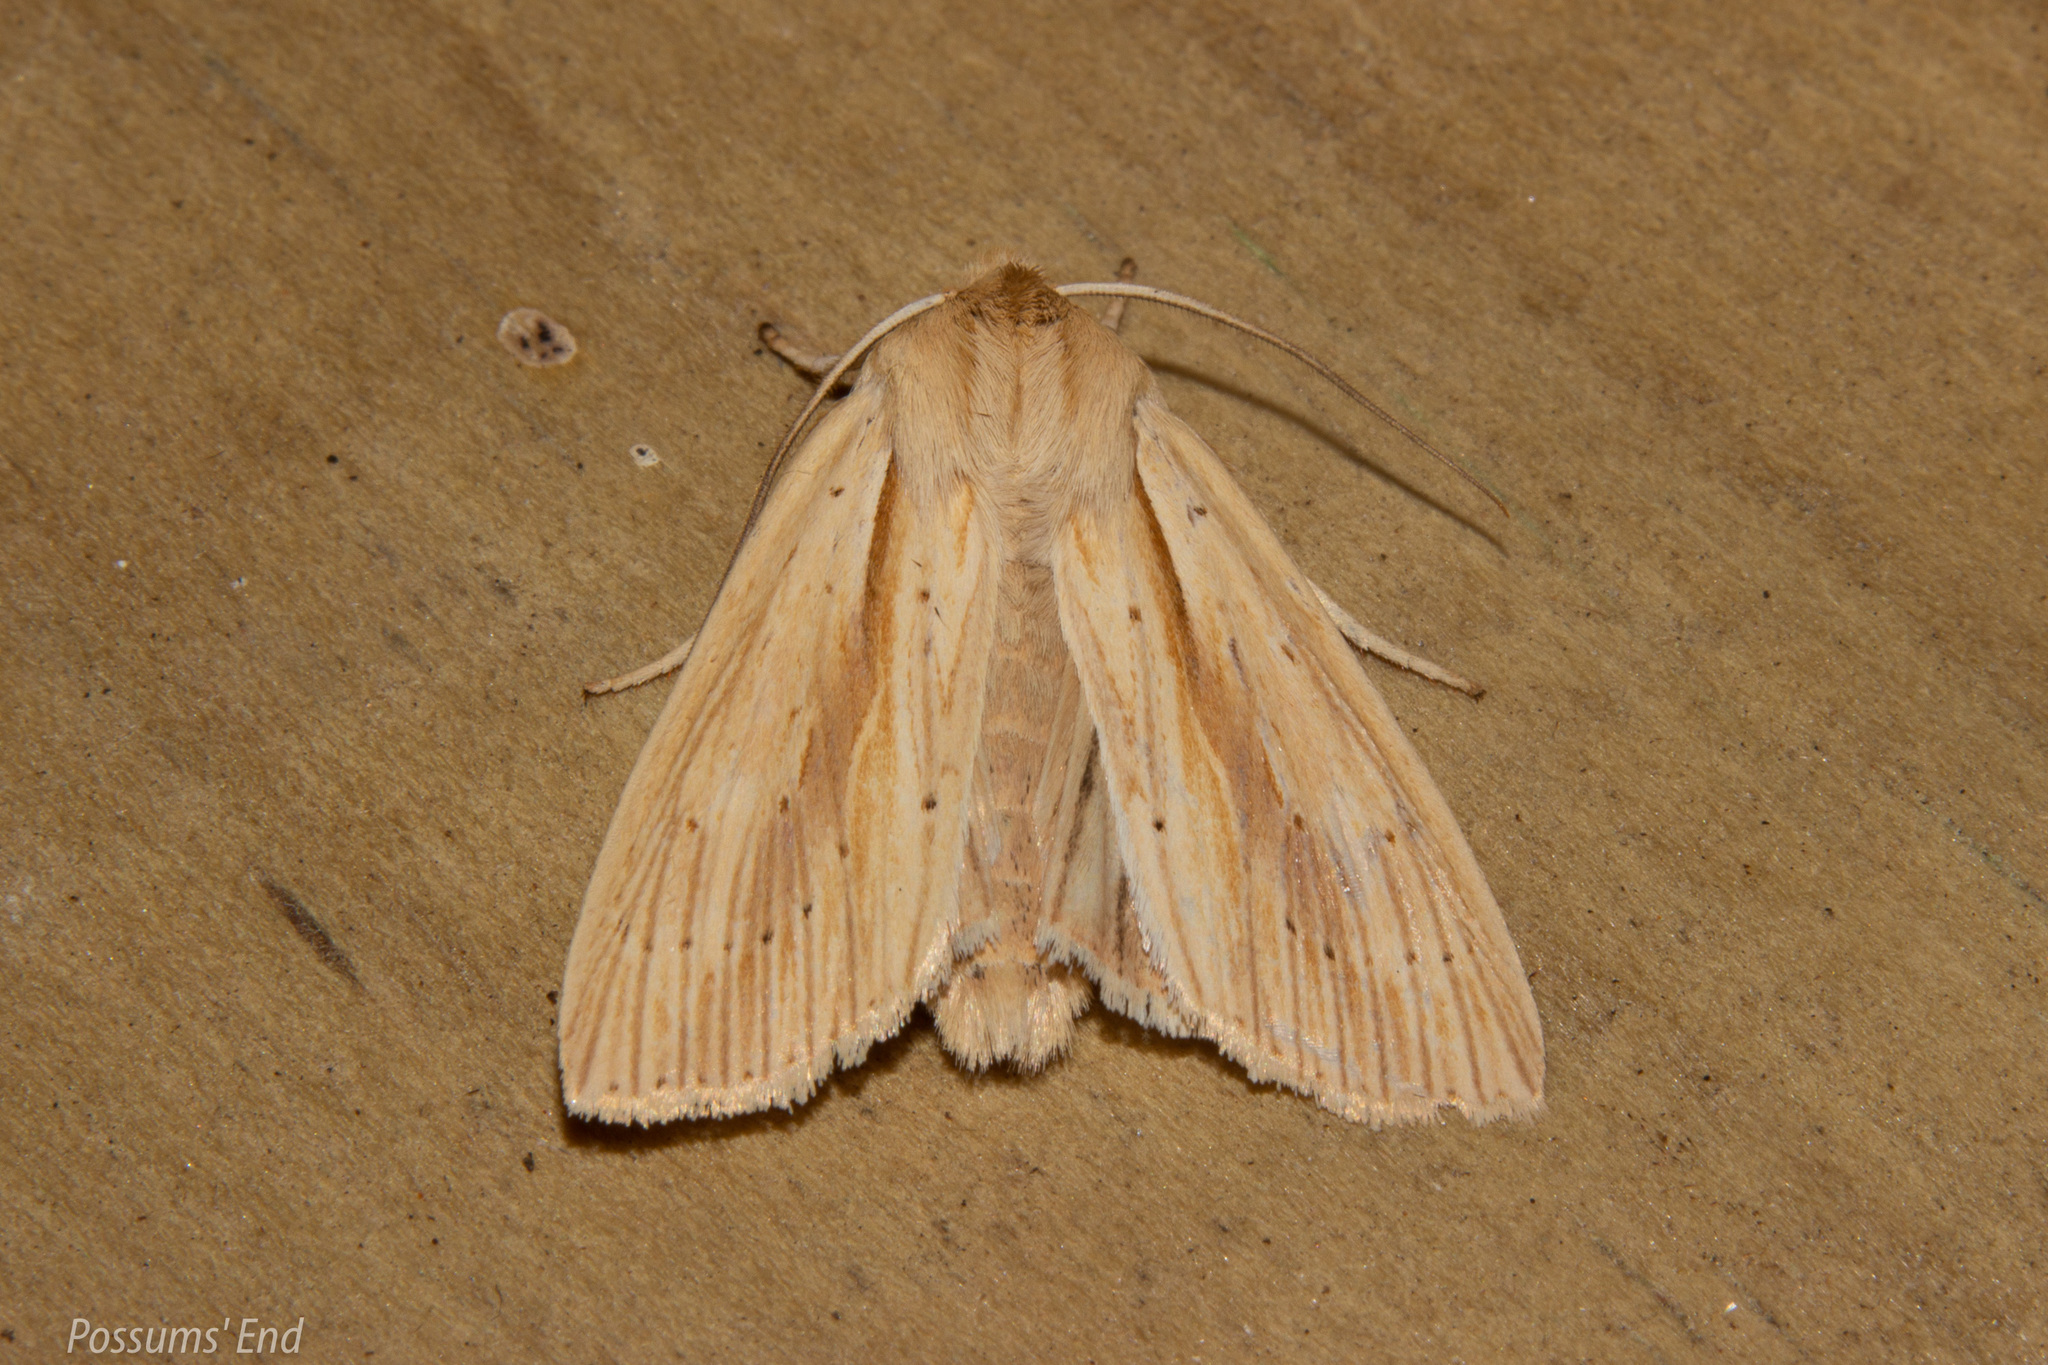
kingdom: Animalia
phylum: Arthropoda
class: Insecta
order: Lepidoptera
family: Noctuidae
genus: Ichneutica
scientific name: Ichneutica semivittata
